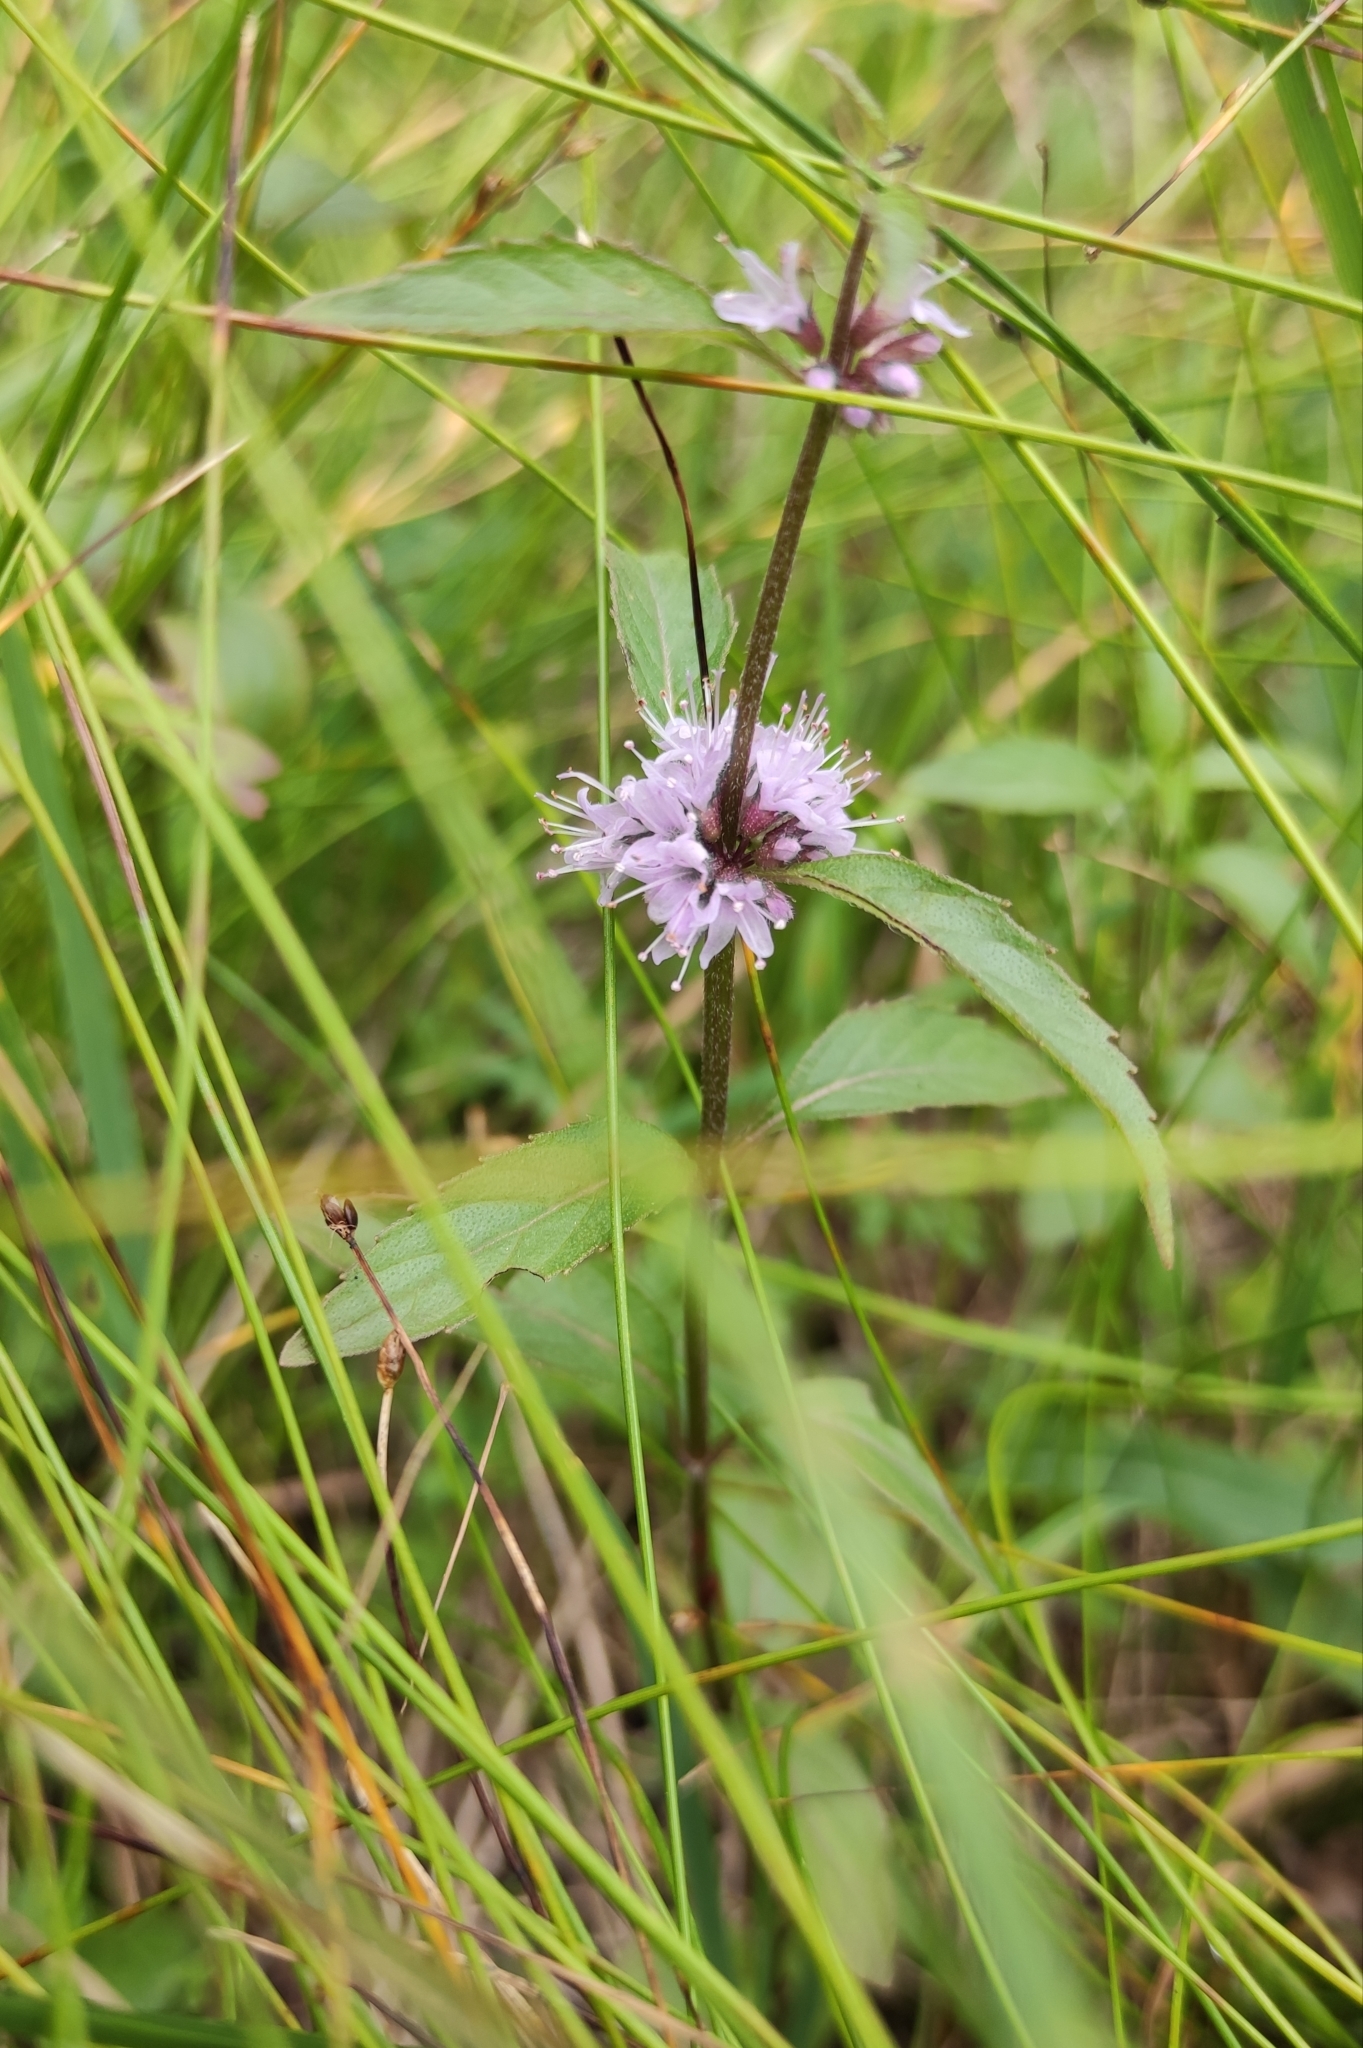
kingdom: Plantae
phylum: Tracheophyta
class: Magnoliopsida
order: Lamiales
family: Lamiaceae
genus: Mentha
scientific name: Mentha canadensis
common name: American corn mint
